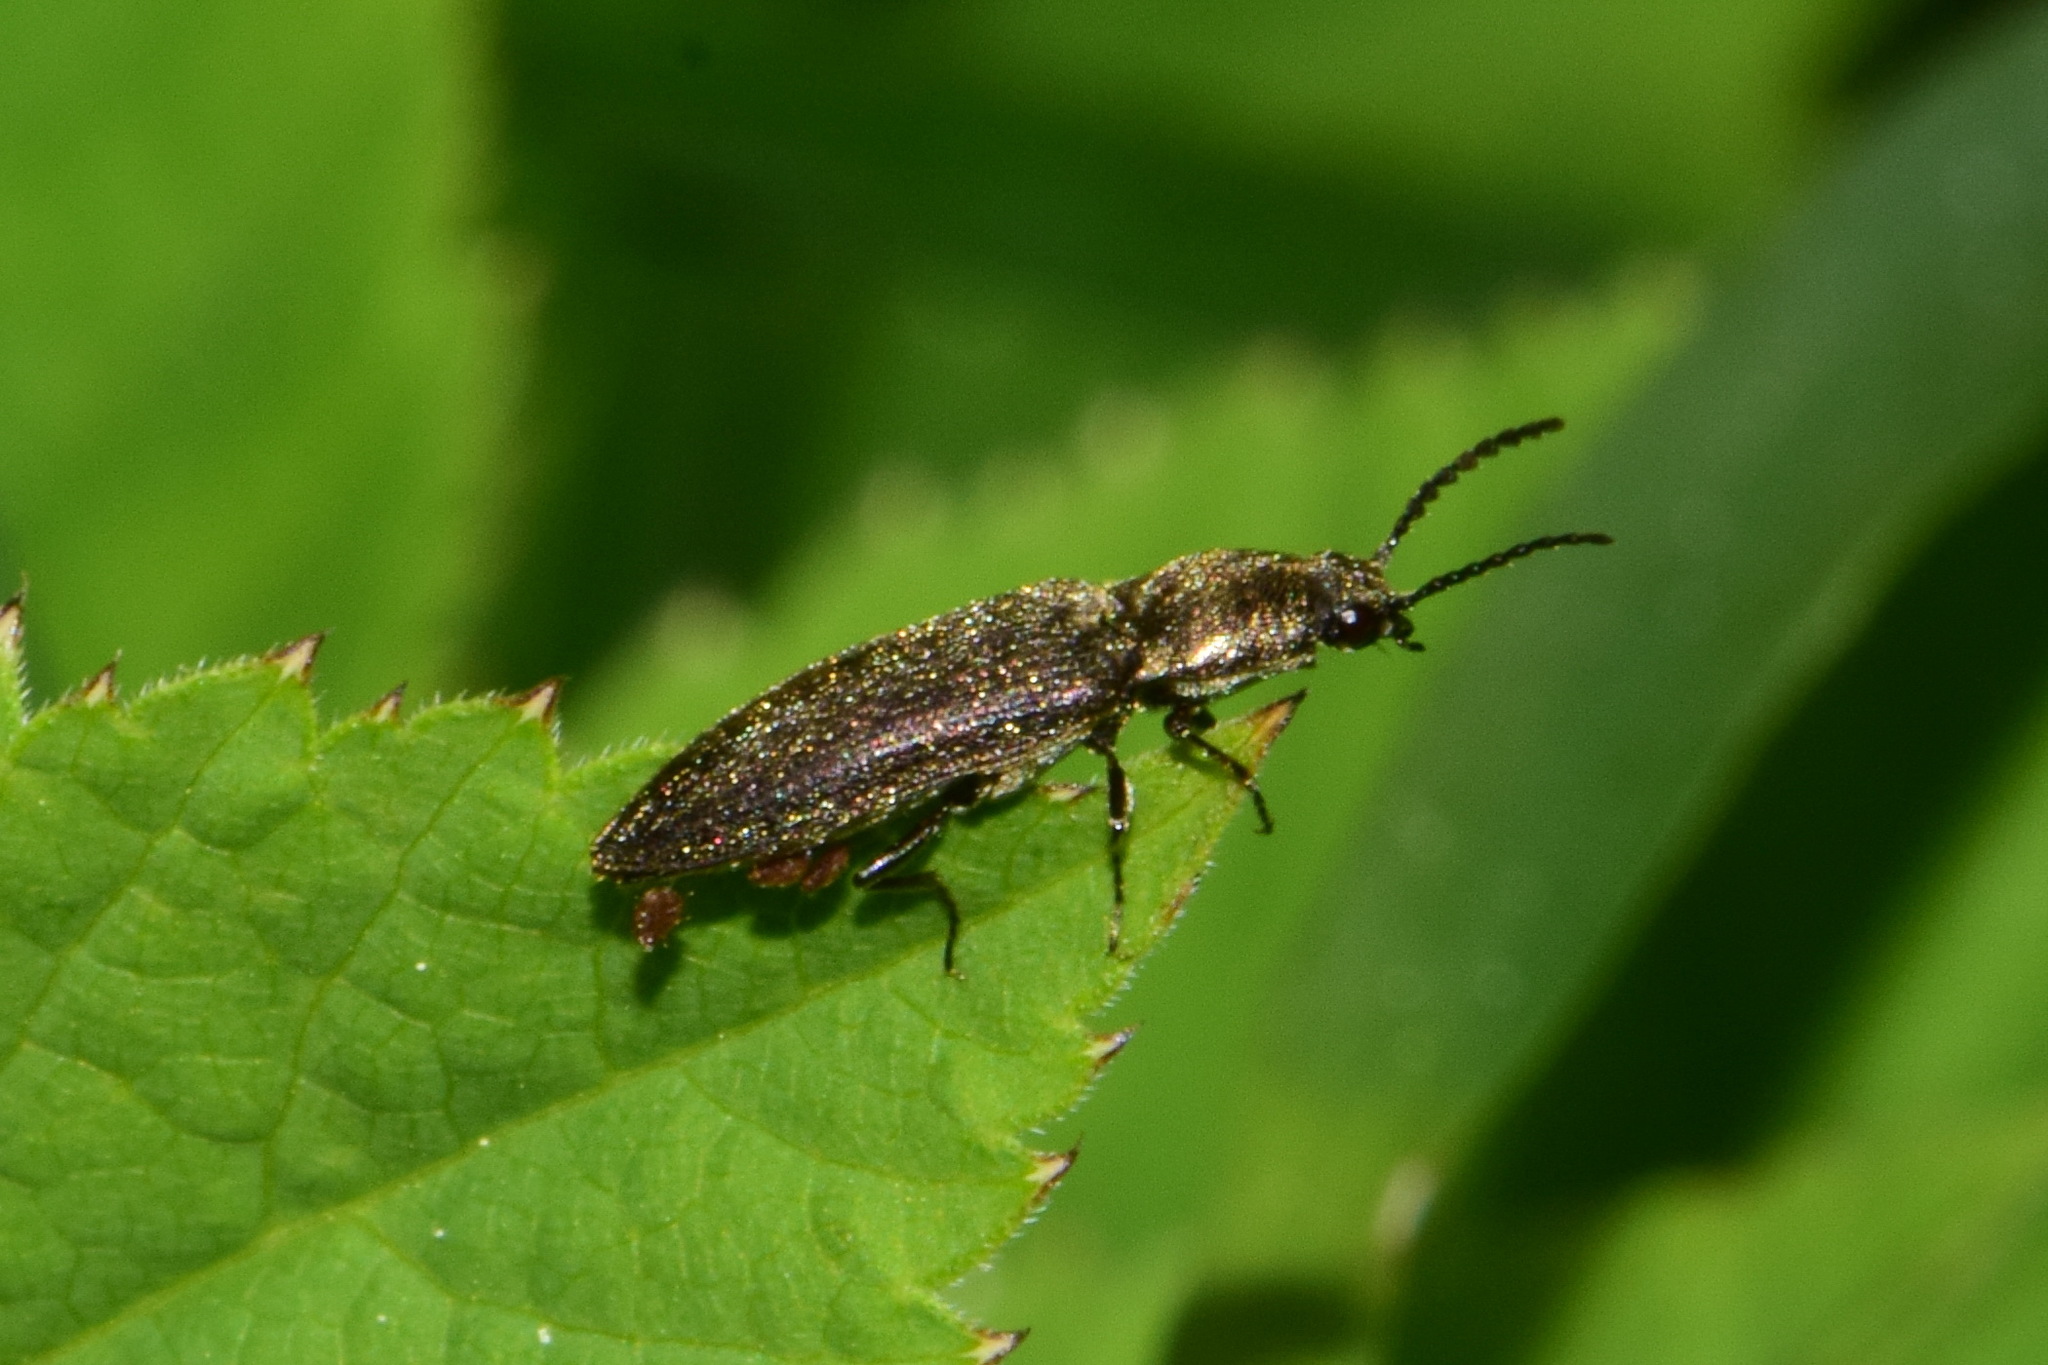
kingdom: Animalia
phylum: Arthropoda
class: Insecta
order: Coleoptera
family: Elateridae
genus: Cidnopus
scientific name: Cidnopus aeruginosus
